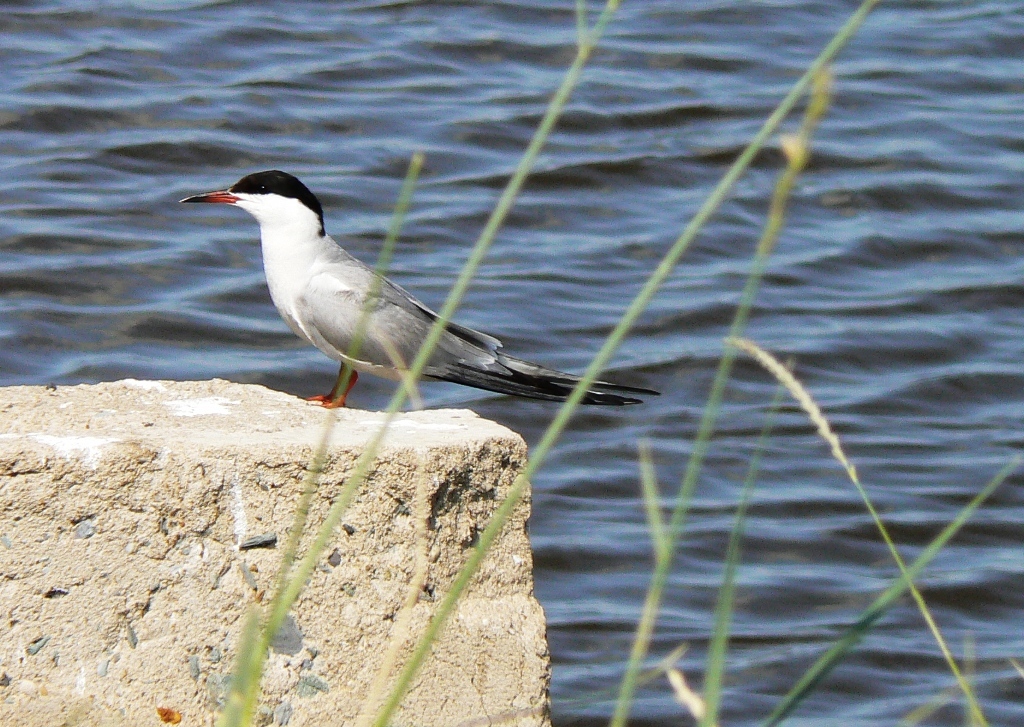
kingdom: Animalia
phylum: Chordata
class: Aves
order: Charadriiformes
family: Laridae
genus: Sterna
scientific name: Sterna hirundo
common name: Common tern
